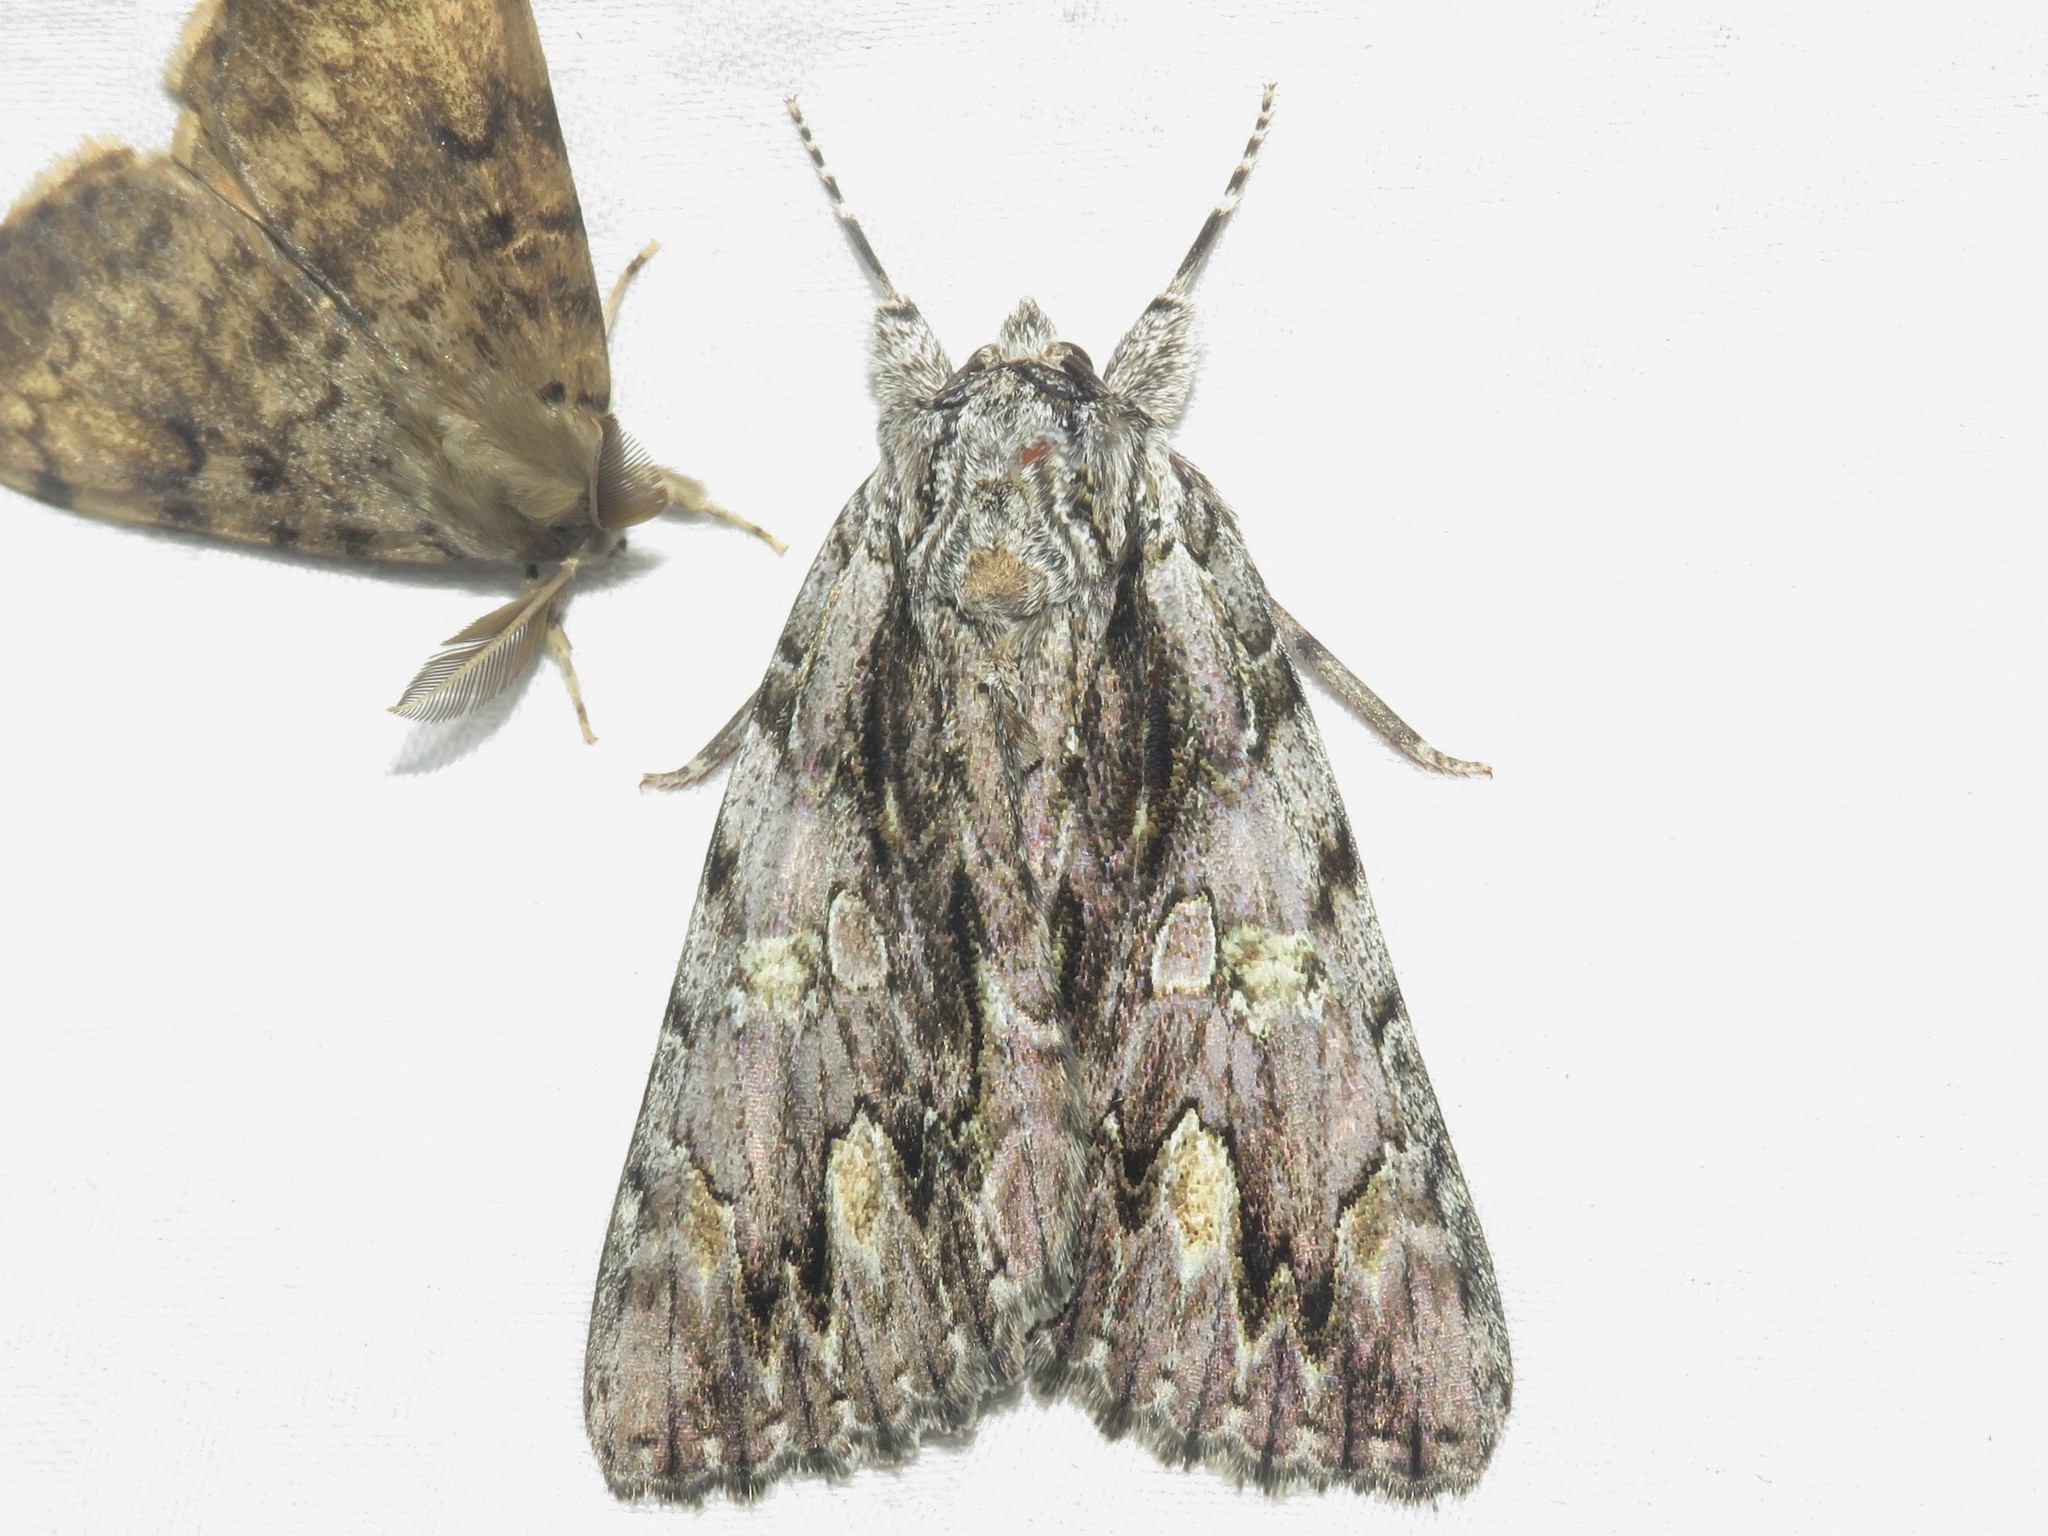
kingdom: Animalia
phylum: Arthropoda
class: Insecta
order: Lepidoptera
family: Erebidae
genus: Catocala
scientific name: Catocala coccinata
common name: Scarlet underwing
